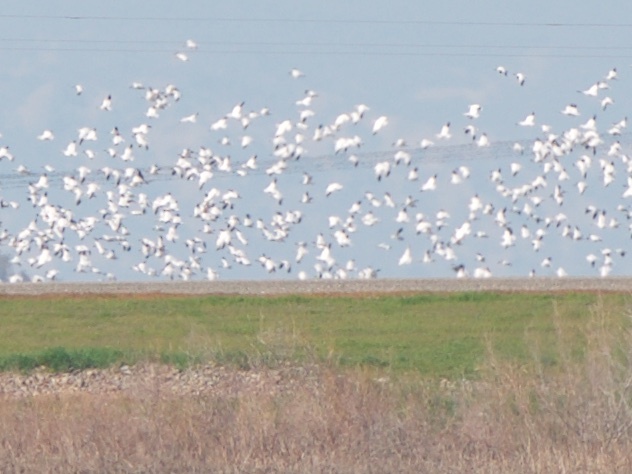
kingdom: Animalia
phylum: Chordata
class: Aves
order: Anseriformes
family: Anatidae
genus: Anser
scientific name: Anser caerulescens
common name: Snow goose
